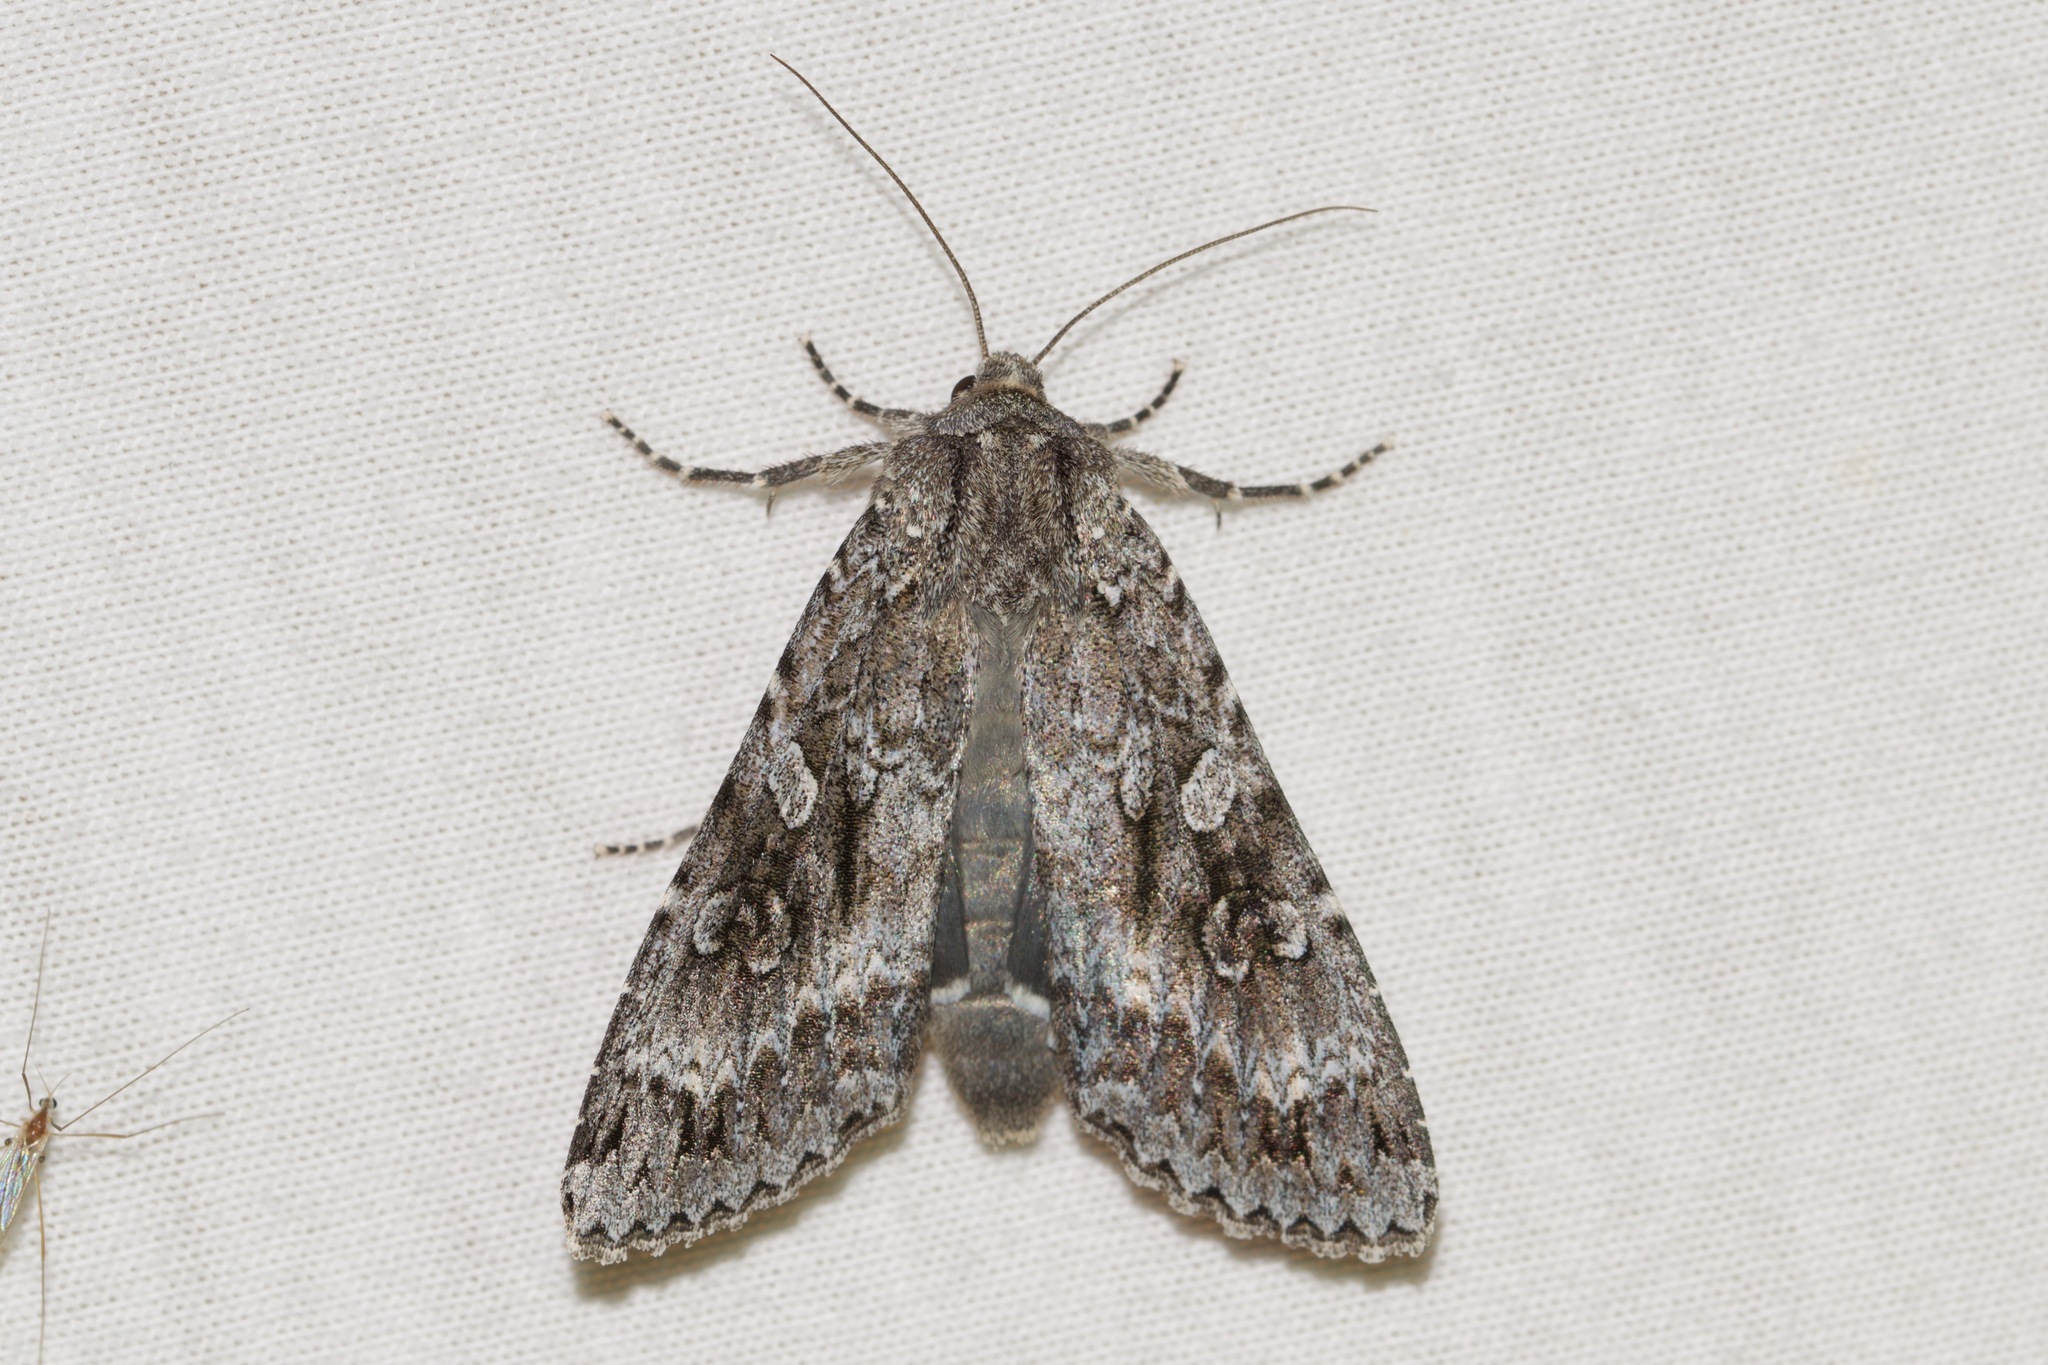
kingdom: Animalia
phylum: Arthropoda
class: Insecta
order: Lepidoptera
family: Noctuidae
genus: Eurois
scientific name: Eurois occulta
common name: Great brocade
